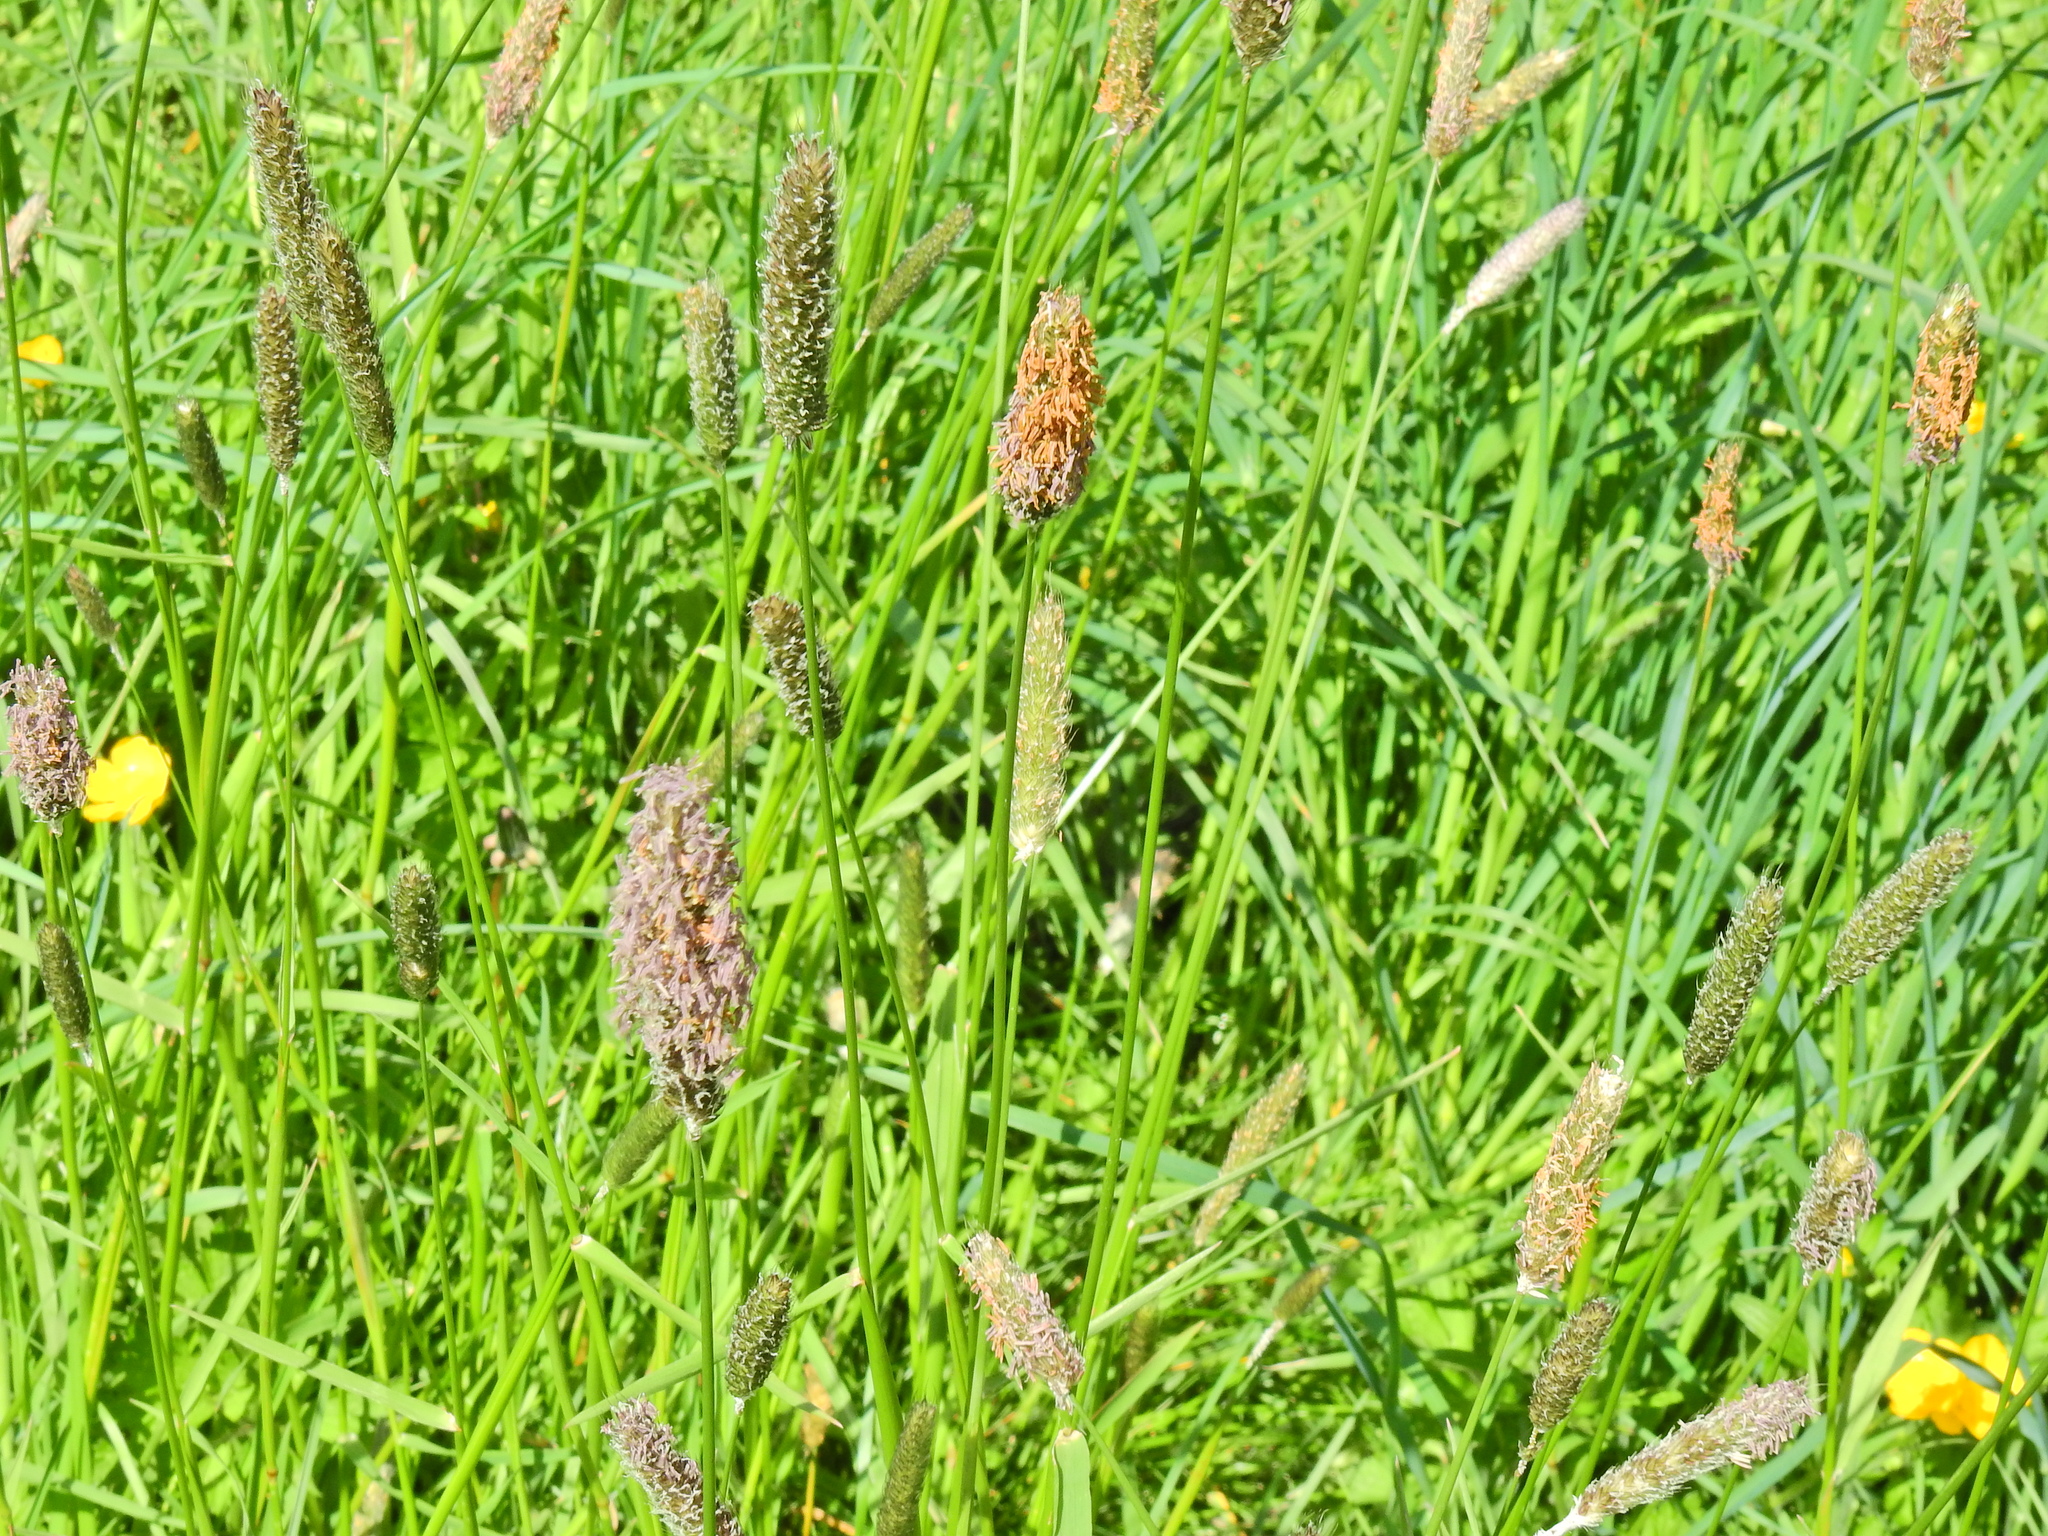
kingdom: Plantae
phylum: Tracheophyta
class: Liliopsida
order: Poales
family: Poaceae
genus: Alopecurus
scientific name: Alopecurus pratensis
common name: Meadow foxtail
